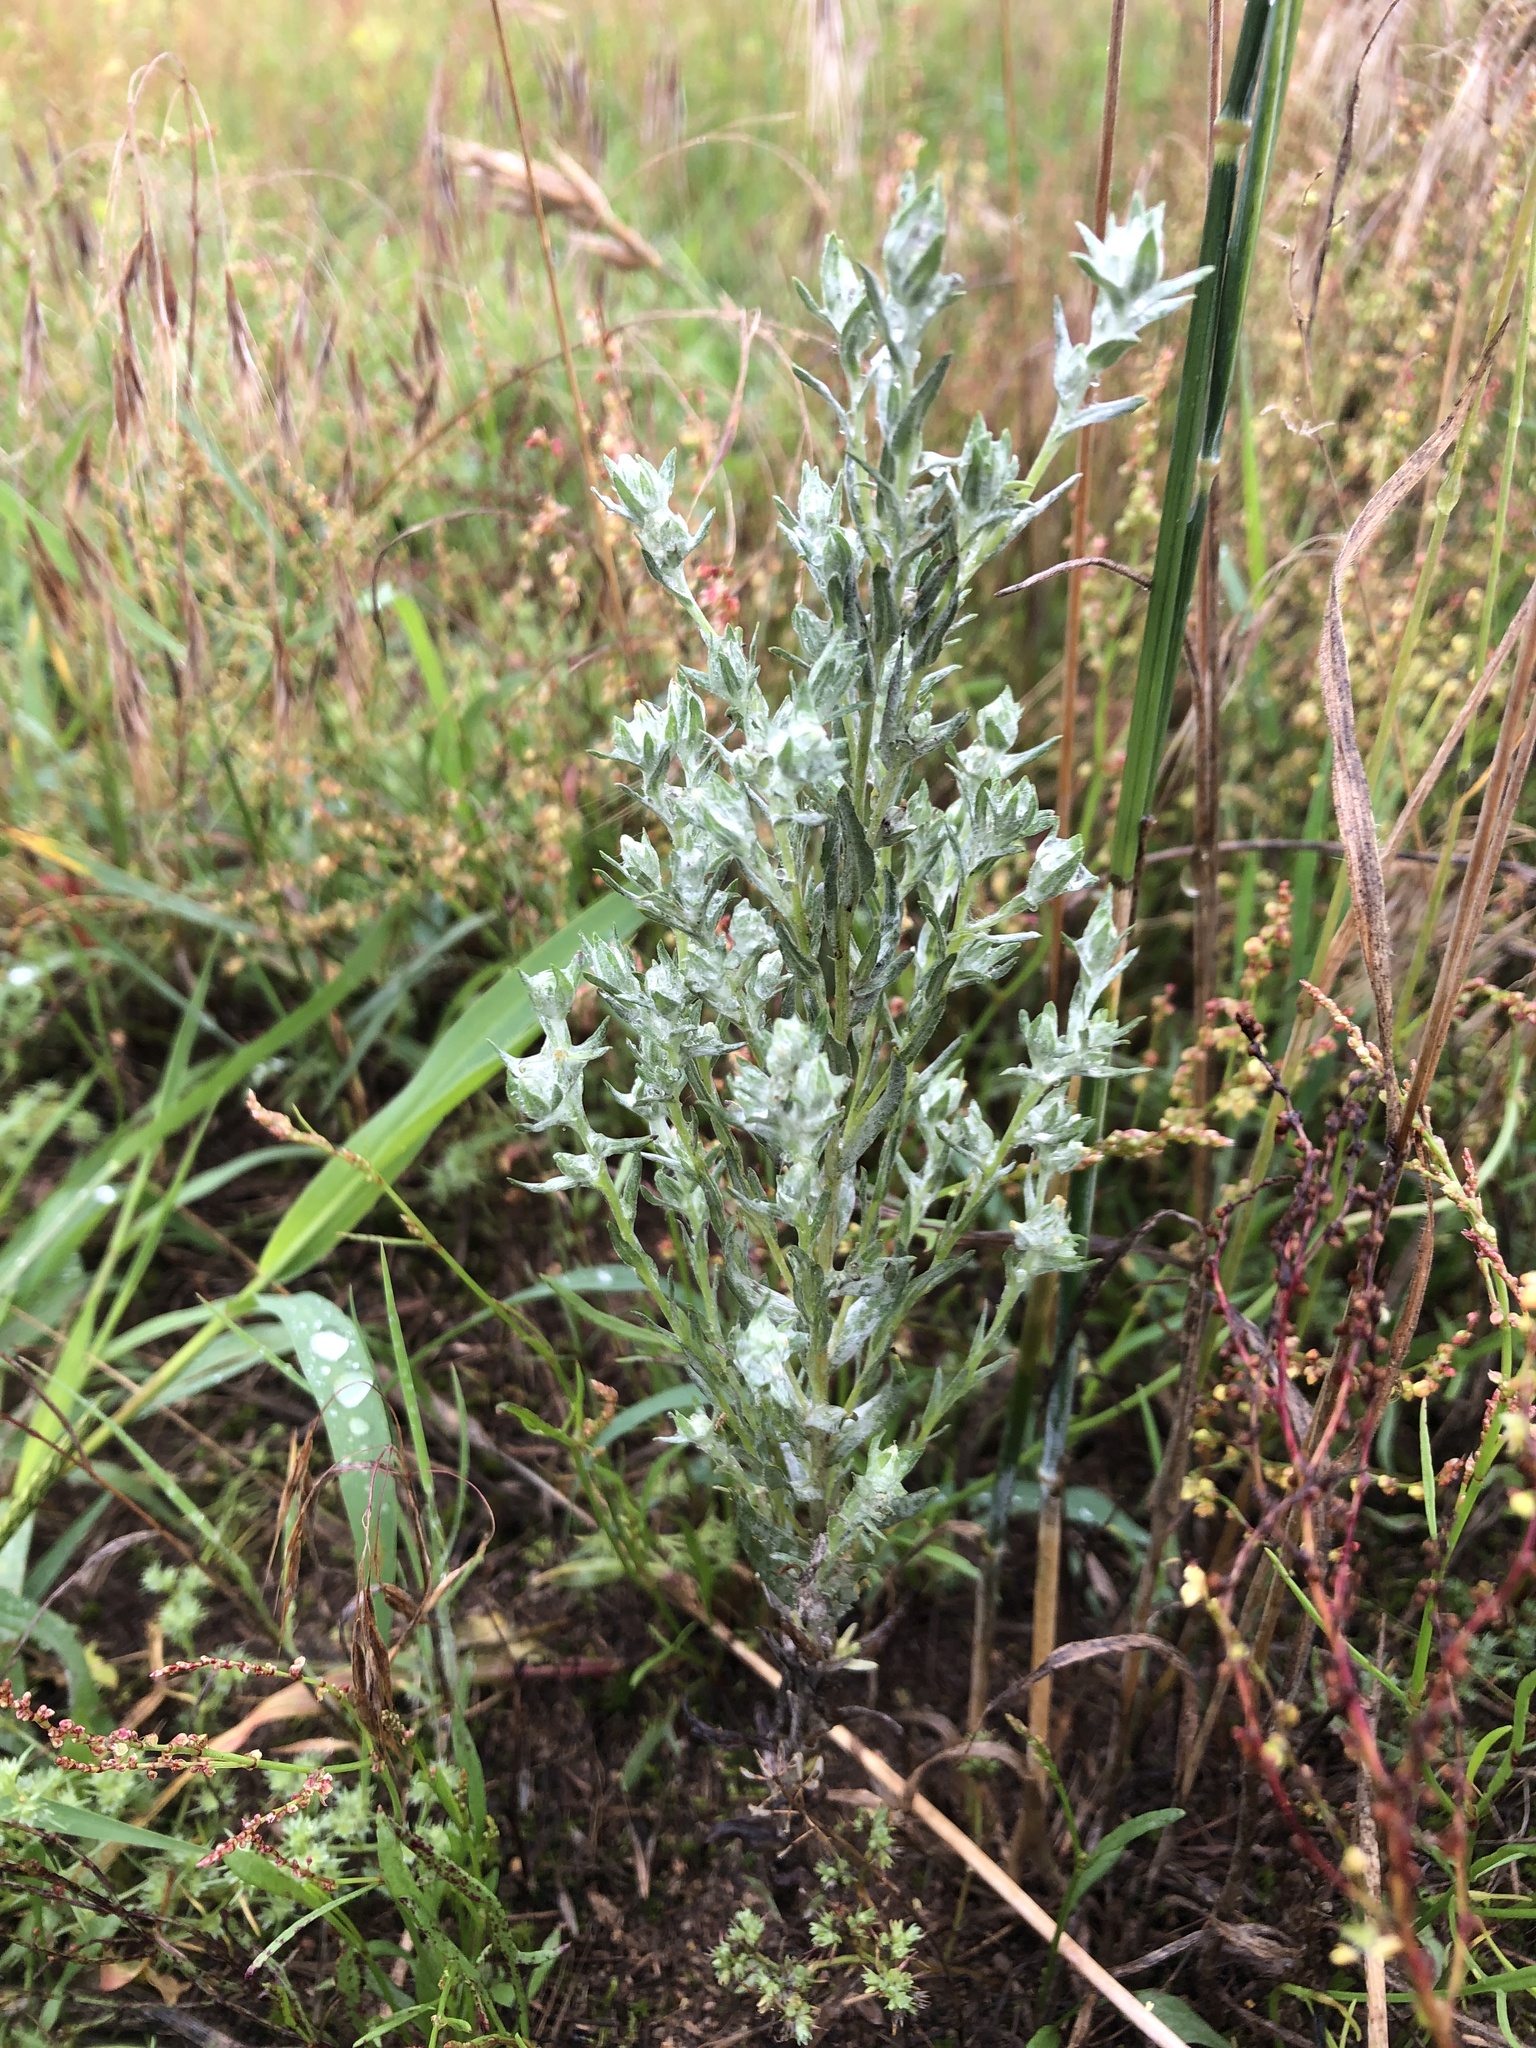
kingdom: Plantae
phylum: Tracheophyta
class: Magnoliopsida
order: Asterales
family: Asteraceae
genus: Filago
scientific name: Filago arvensis
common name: Field cudweed
